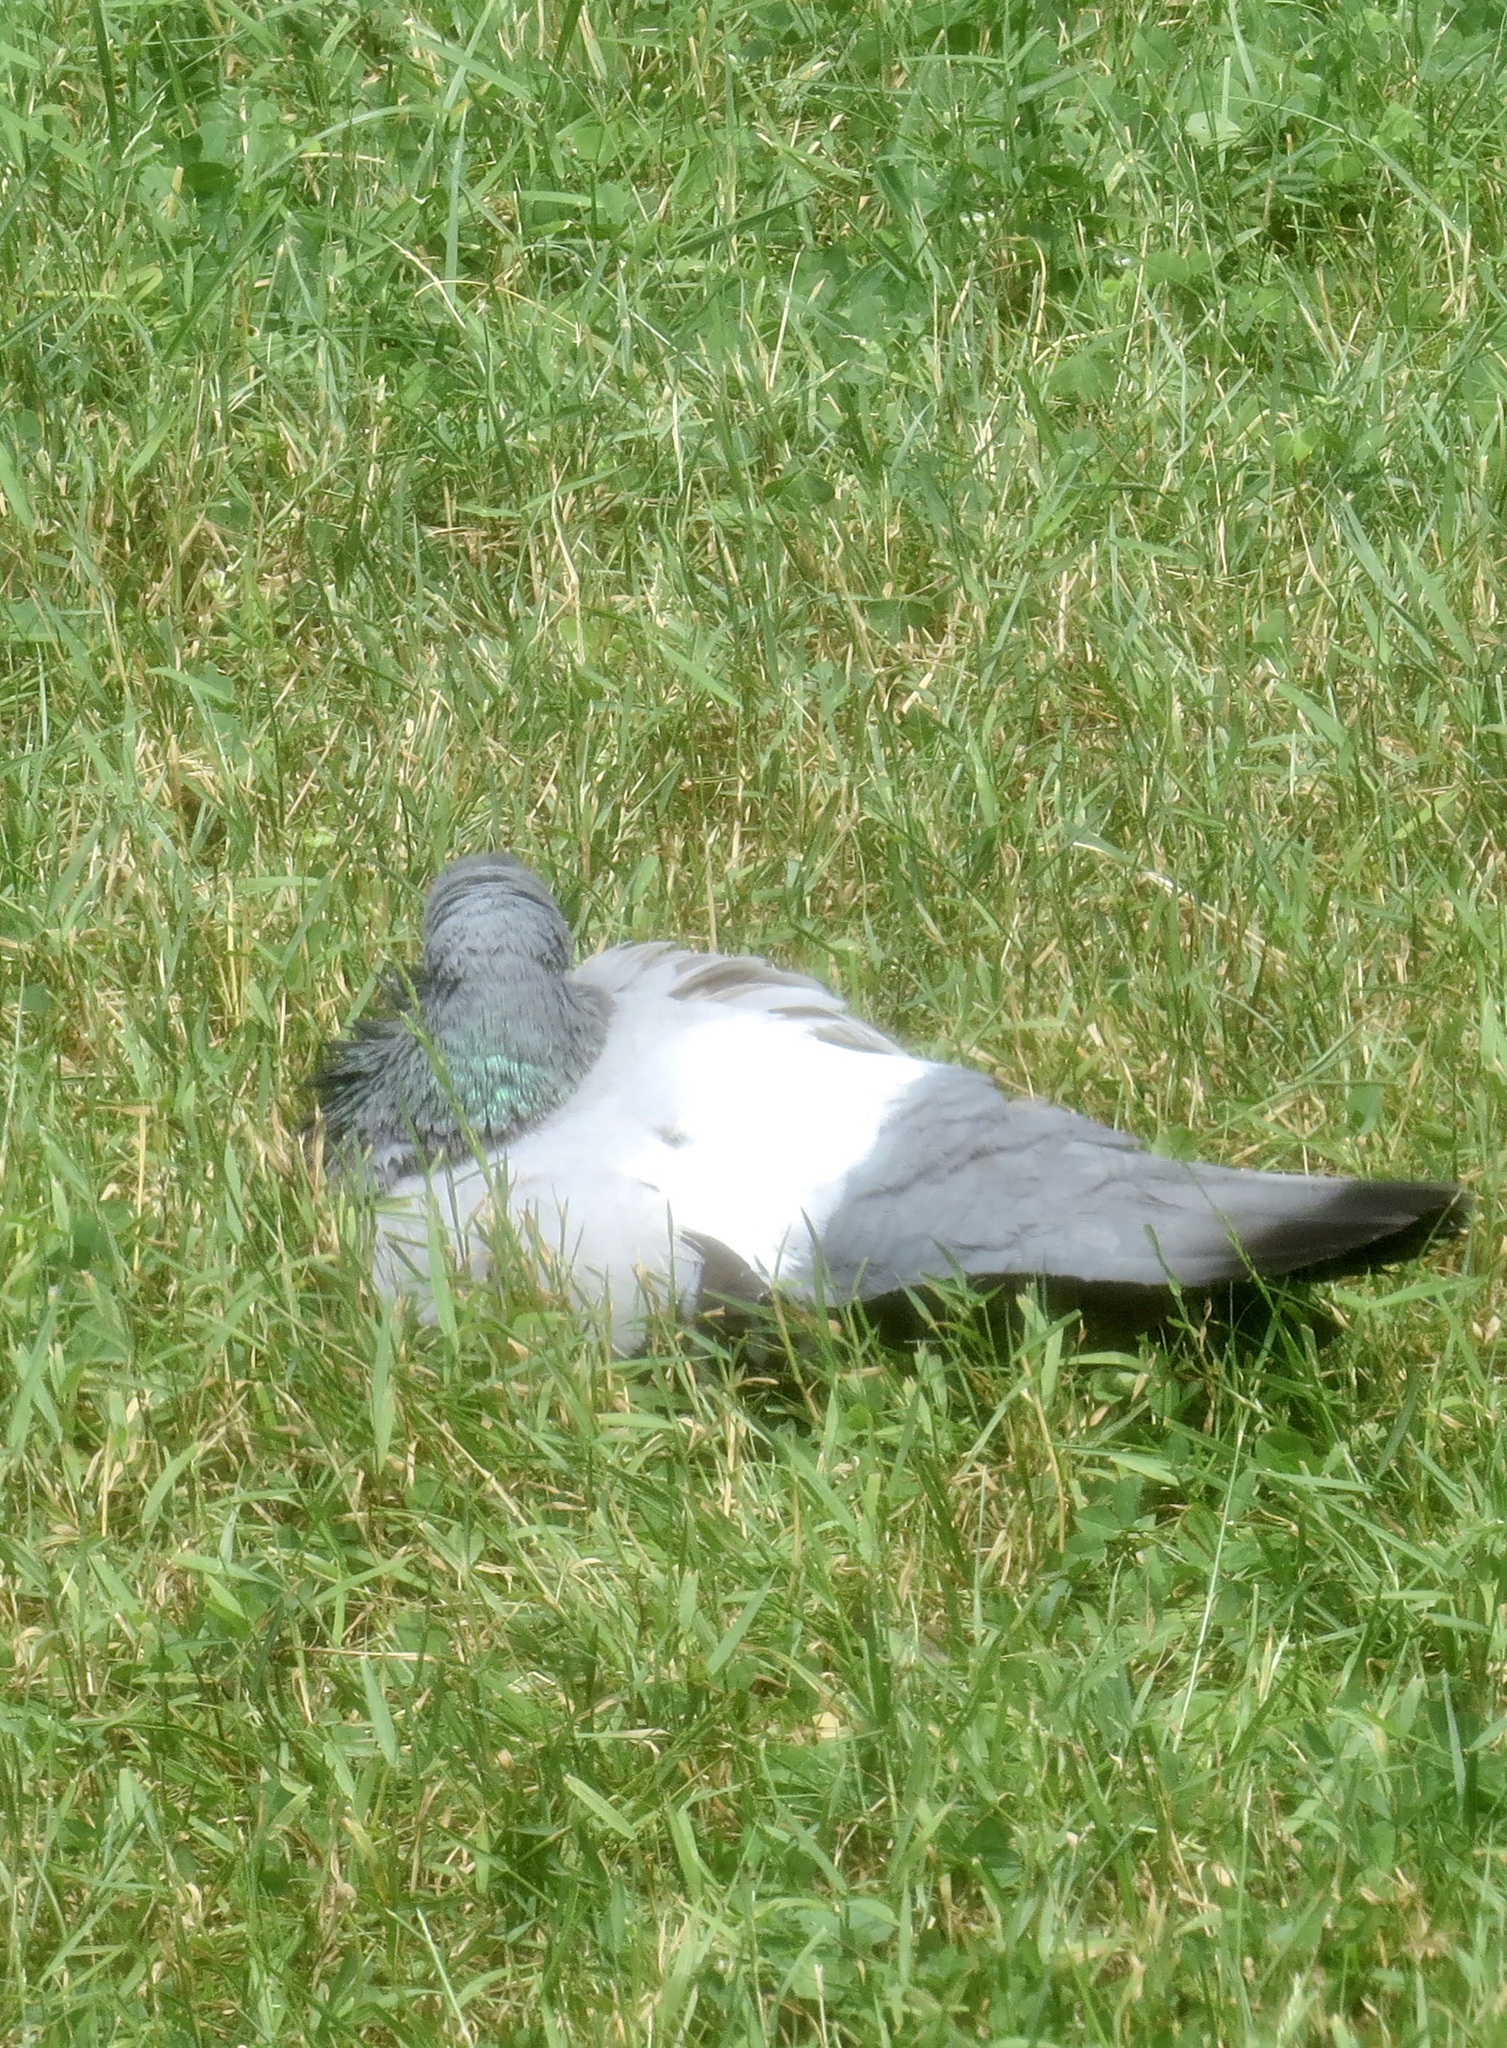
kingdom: Animalia
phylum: Chordata
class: Aves
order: Columbiformes
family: Columbidae
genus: Columba
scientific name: Columba livia
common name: Rock pigeon
